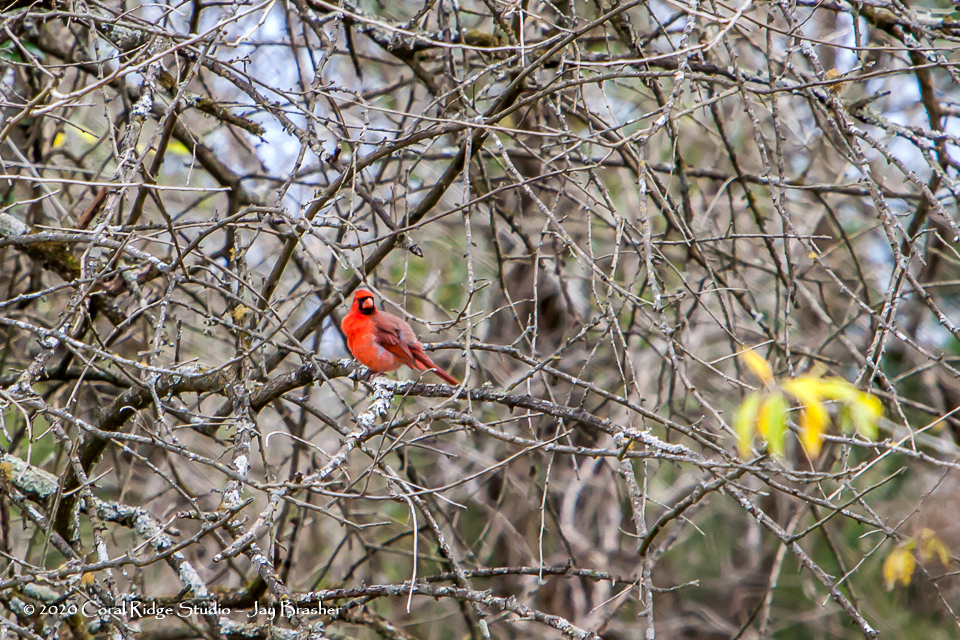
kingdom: Animalia
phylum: Chordata
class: Aves
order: Passeriformes
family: Cardinalidae
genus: Cardinalis
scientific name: Cardinalis cardinalis
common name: Northern cardinal
